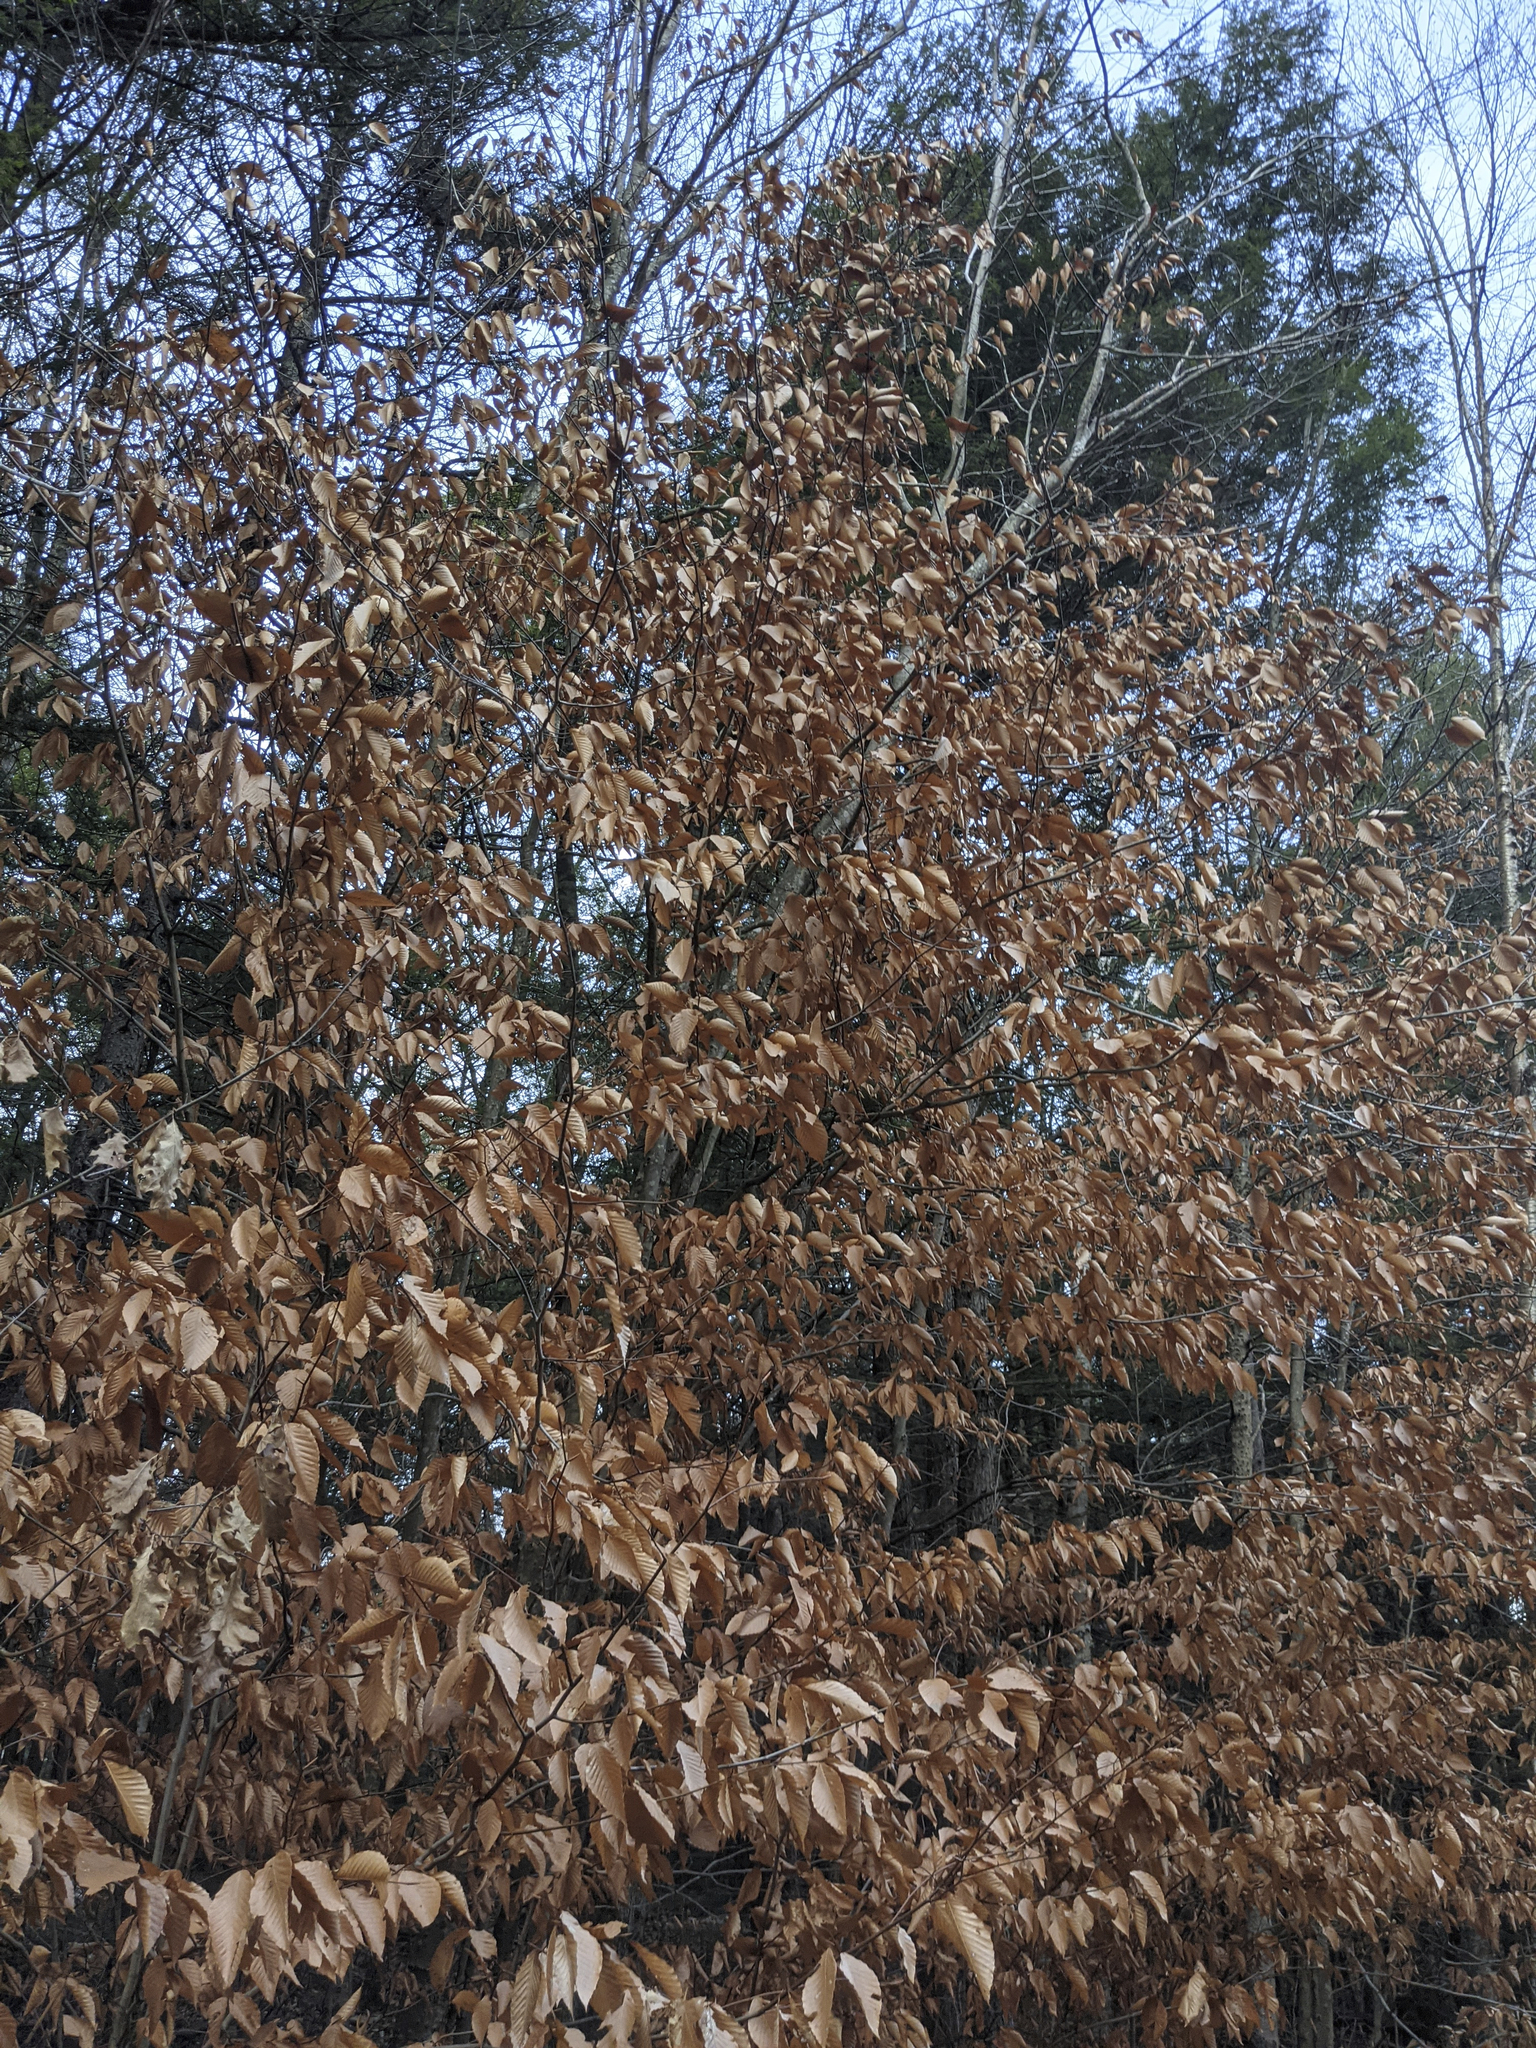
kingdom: Plantae
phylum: Tracheophyta
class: Magnoliopsida
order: Fagales
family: Fagaceae
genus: Fagus
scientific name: Fagus grandifolia
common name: American beech
